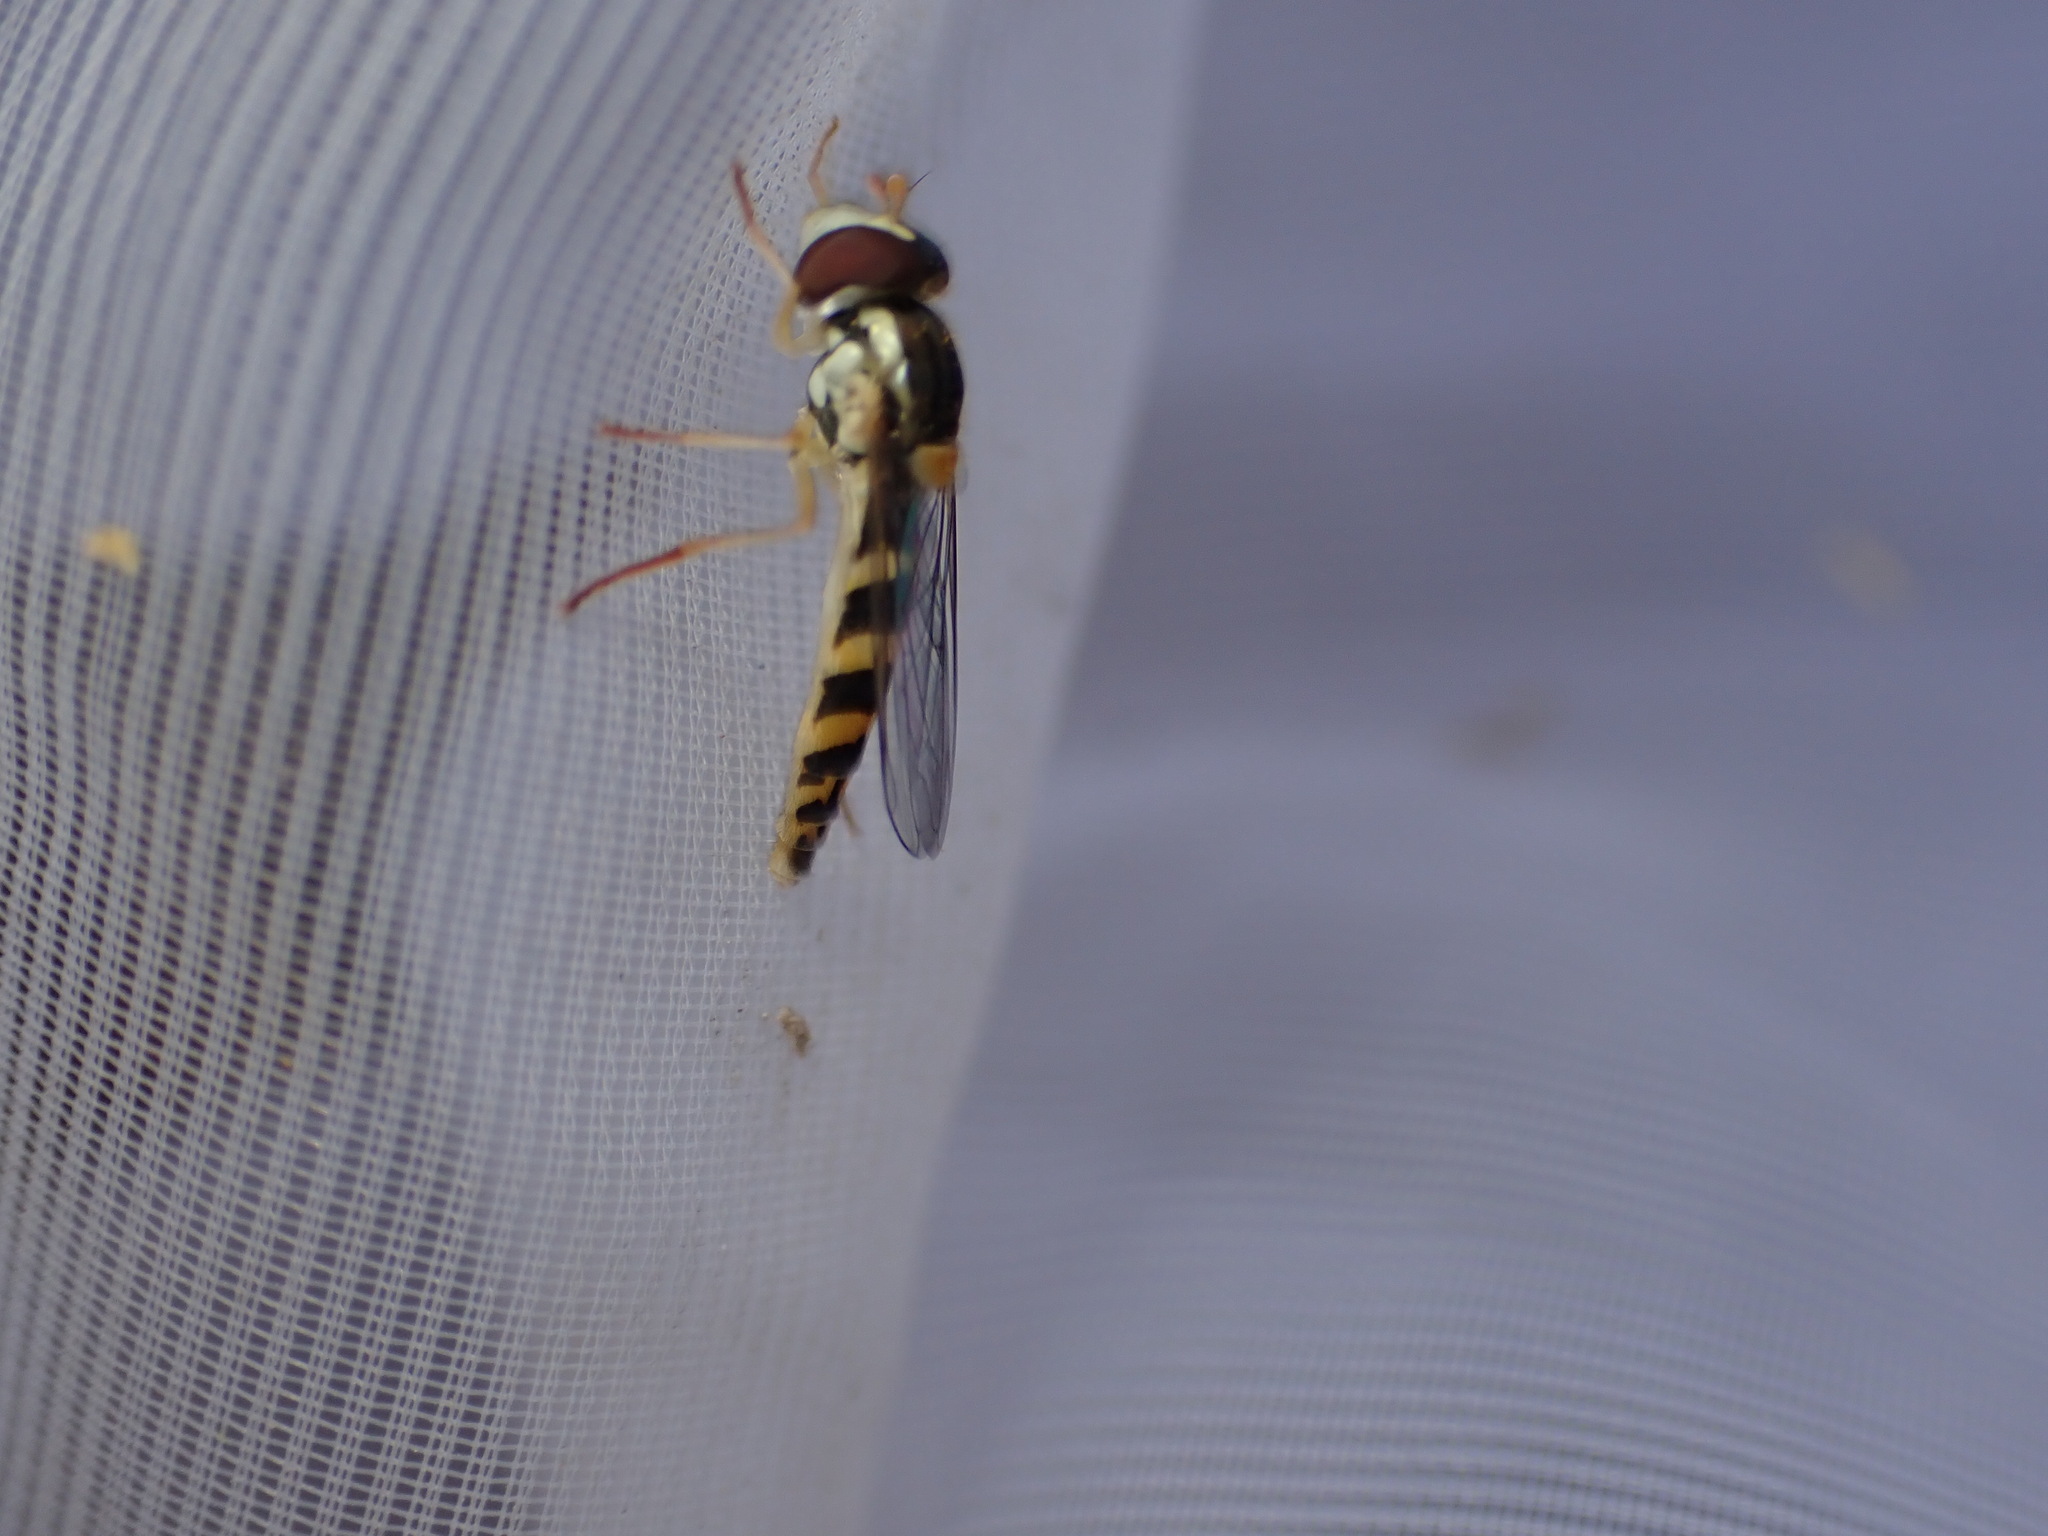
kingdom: Animalia
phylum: Arthropoda
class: Insecta
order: Diptera
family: Syrphidae
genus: Sphaerophoria
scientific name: Sphaerophoria
